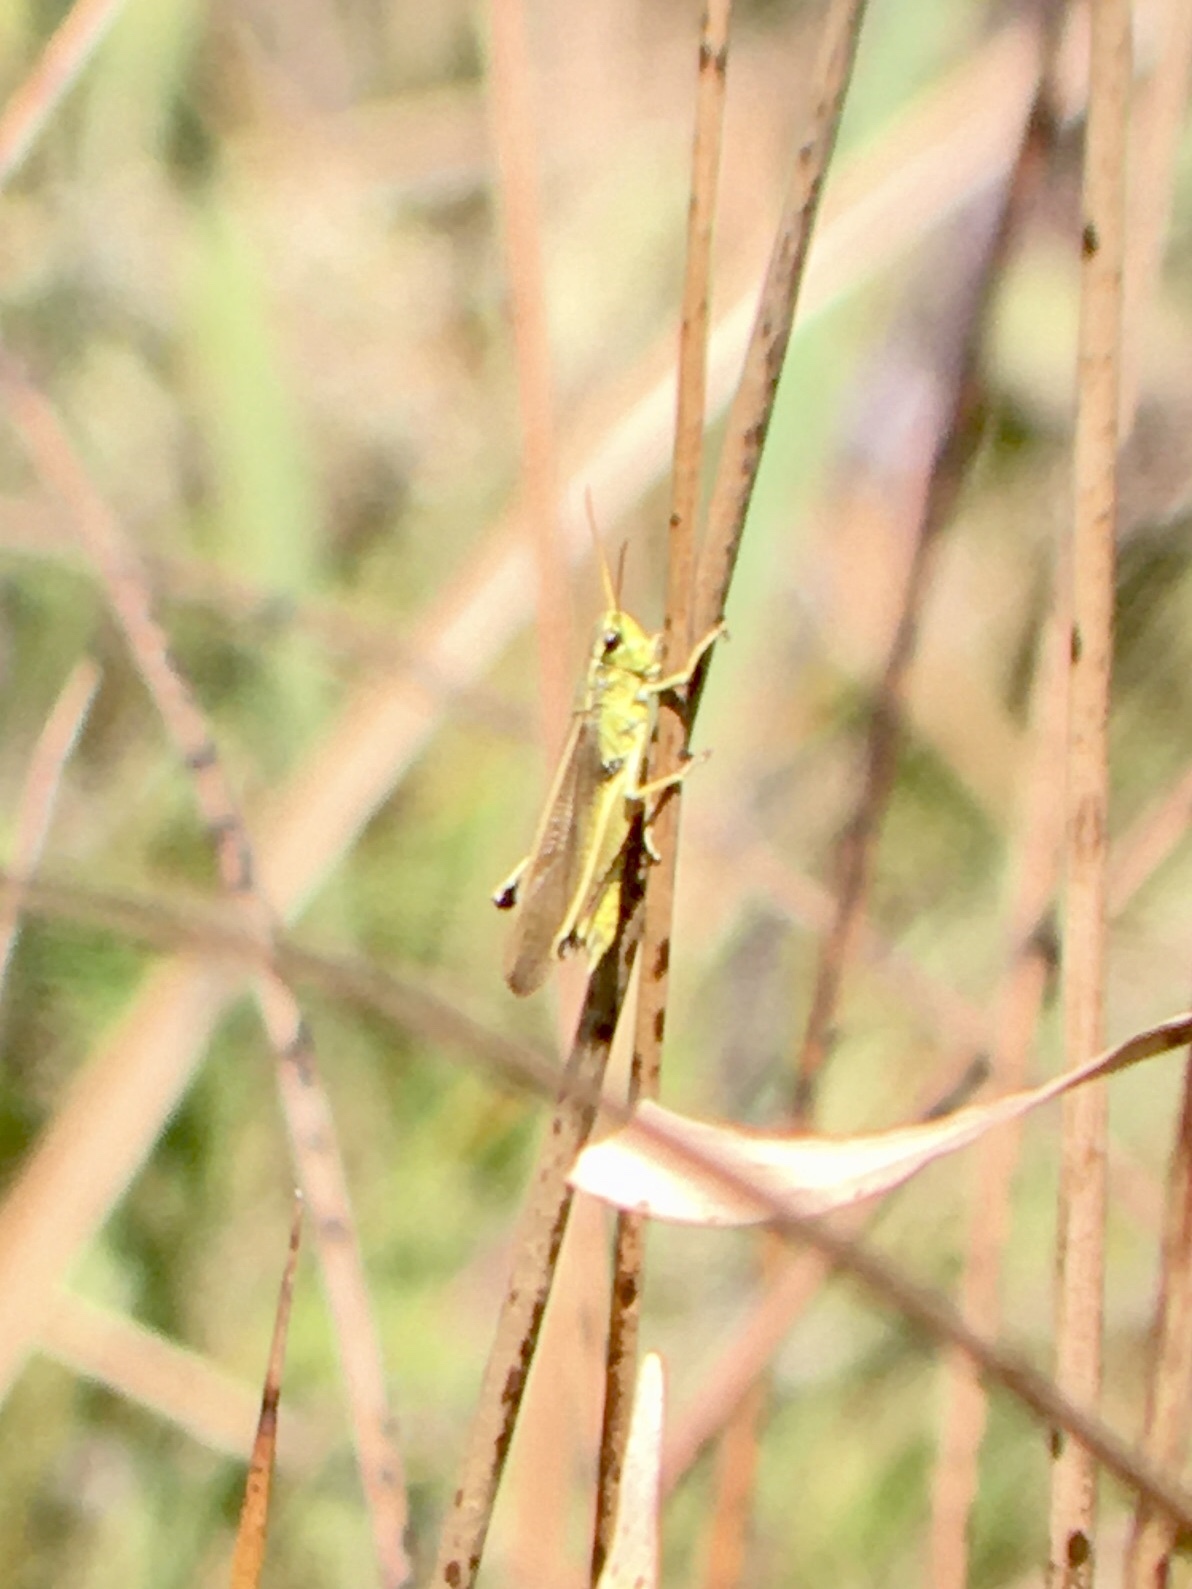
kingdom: Animalia
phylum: Arthropoda
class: Insecta
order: Orthoptera
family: Acrididae
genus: Stethophyma
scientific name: Stethophyma gracile
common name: Graceful sedge grasshopper
